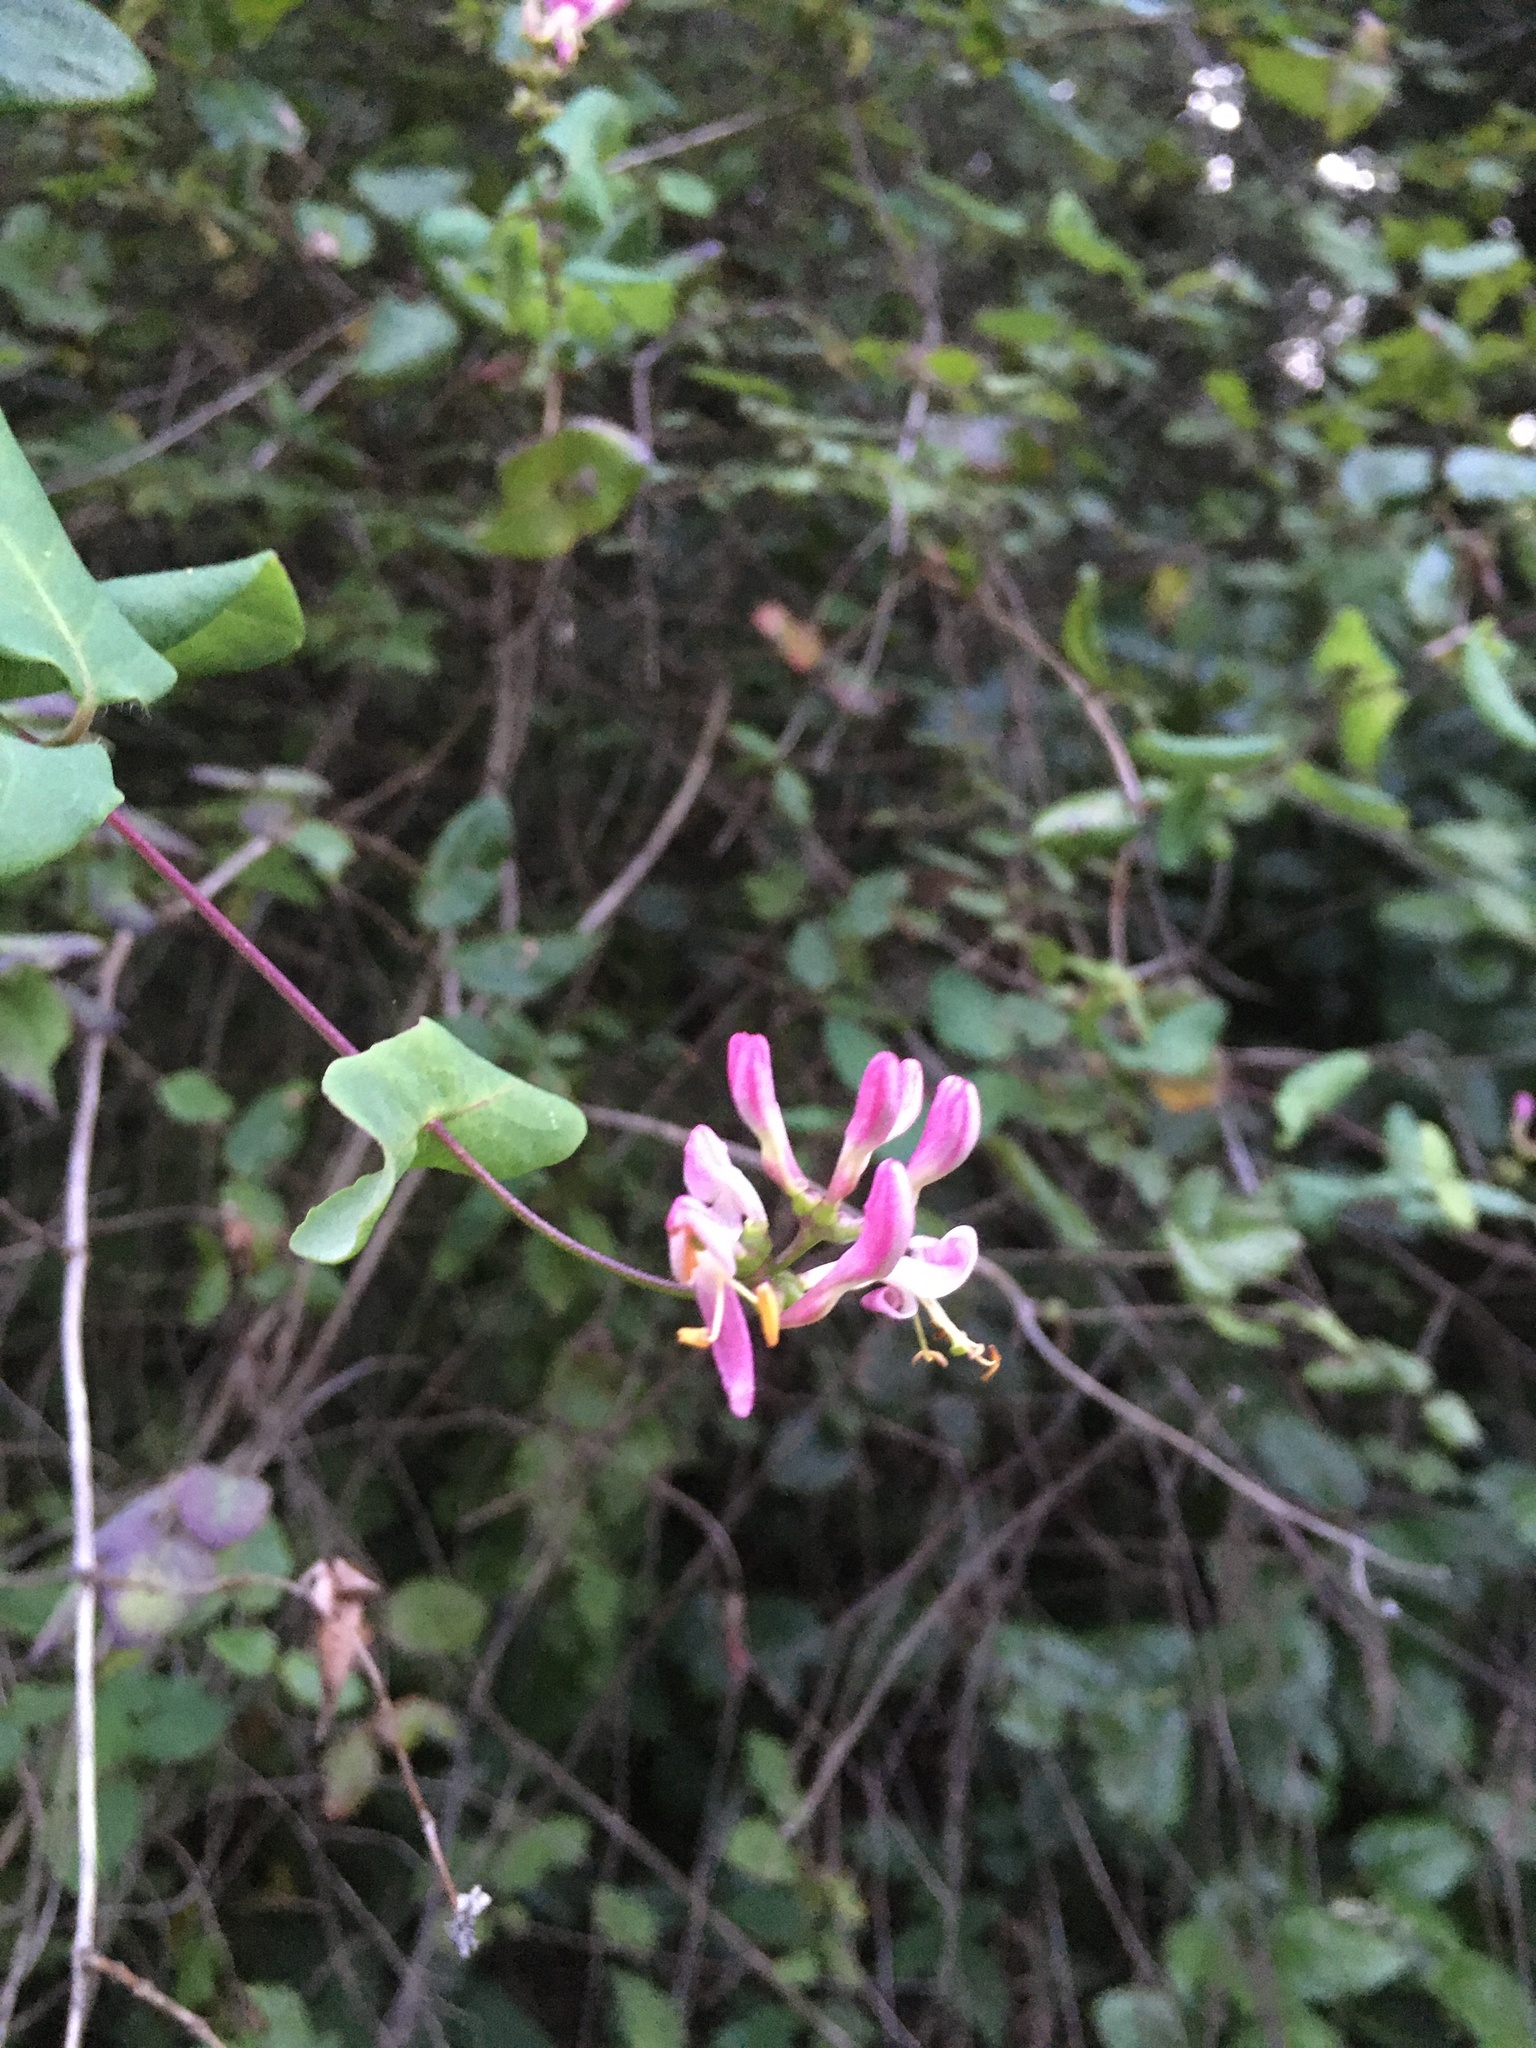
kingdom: Plantae
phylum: Tracheophyta
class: Magnoliopsida
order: Dipsacales
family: Caprifoliaceae
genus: Lonicera
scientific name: Lonicera hispidula
